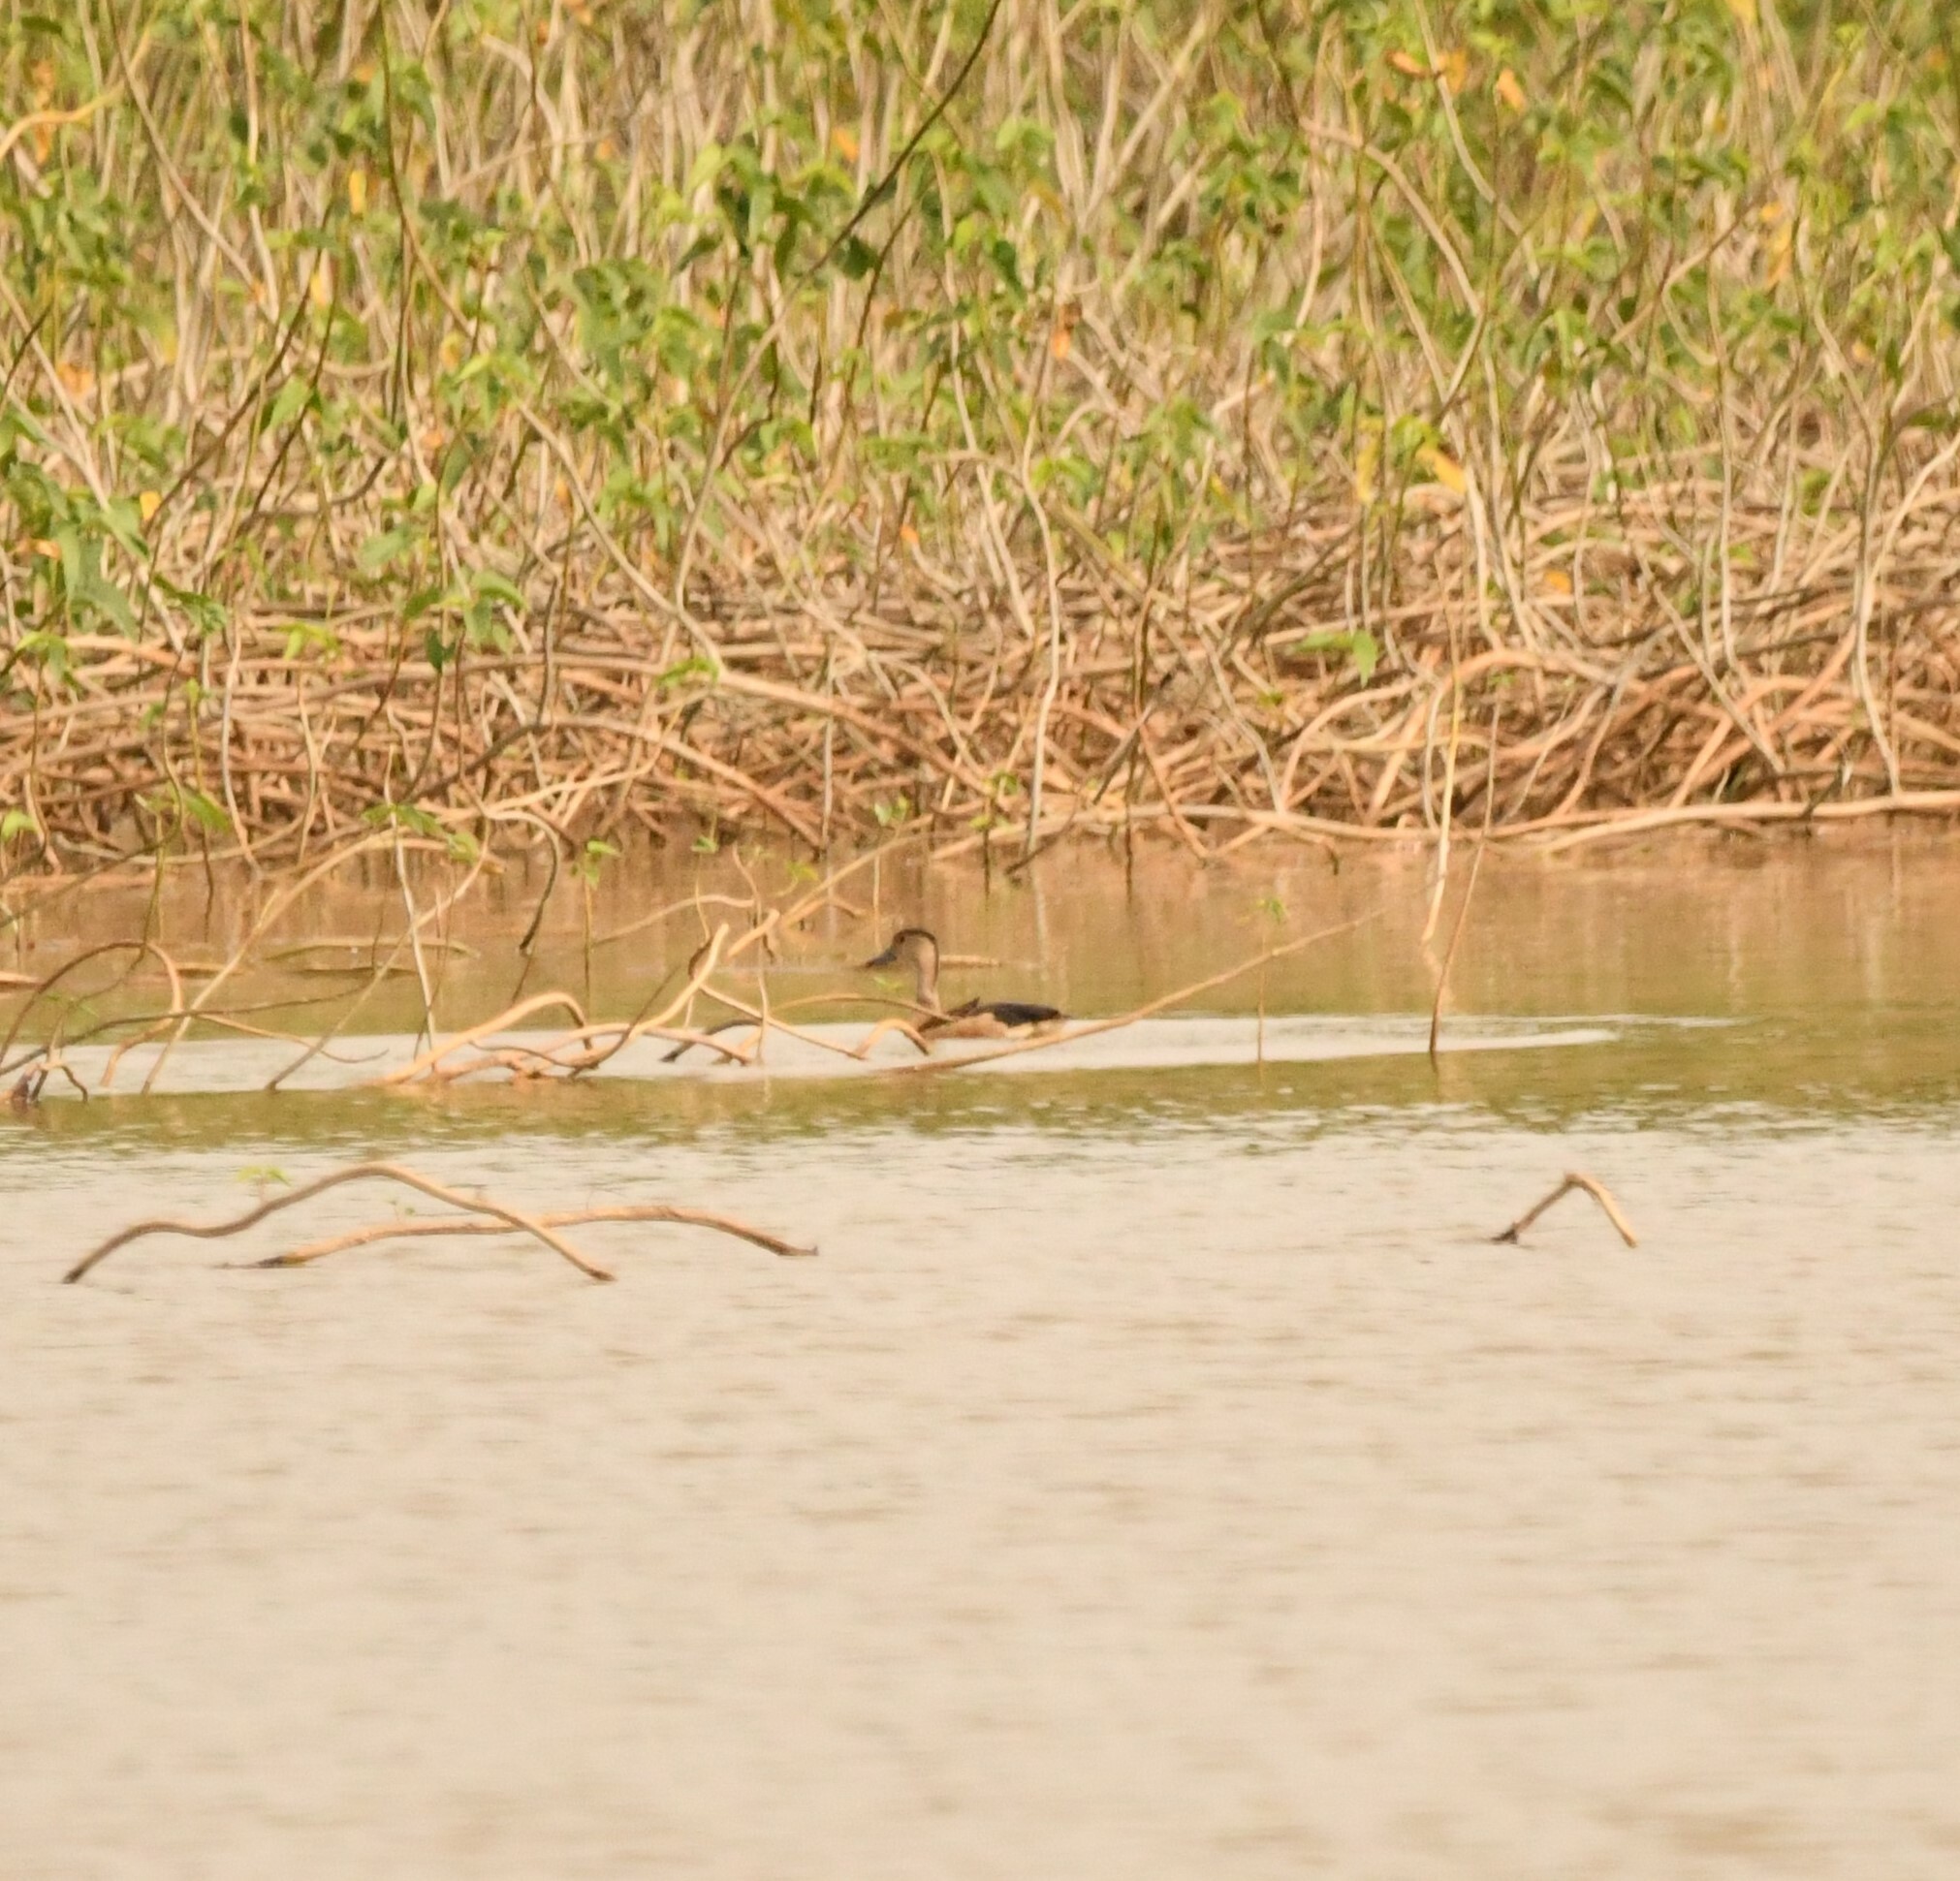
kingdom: Animalia
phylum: Chordata
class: Aves
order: Anseriformes
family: Anatidae
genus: Dendrocygna
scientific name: Dendrocygna javanica
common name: Lesser whistling-duck
